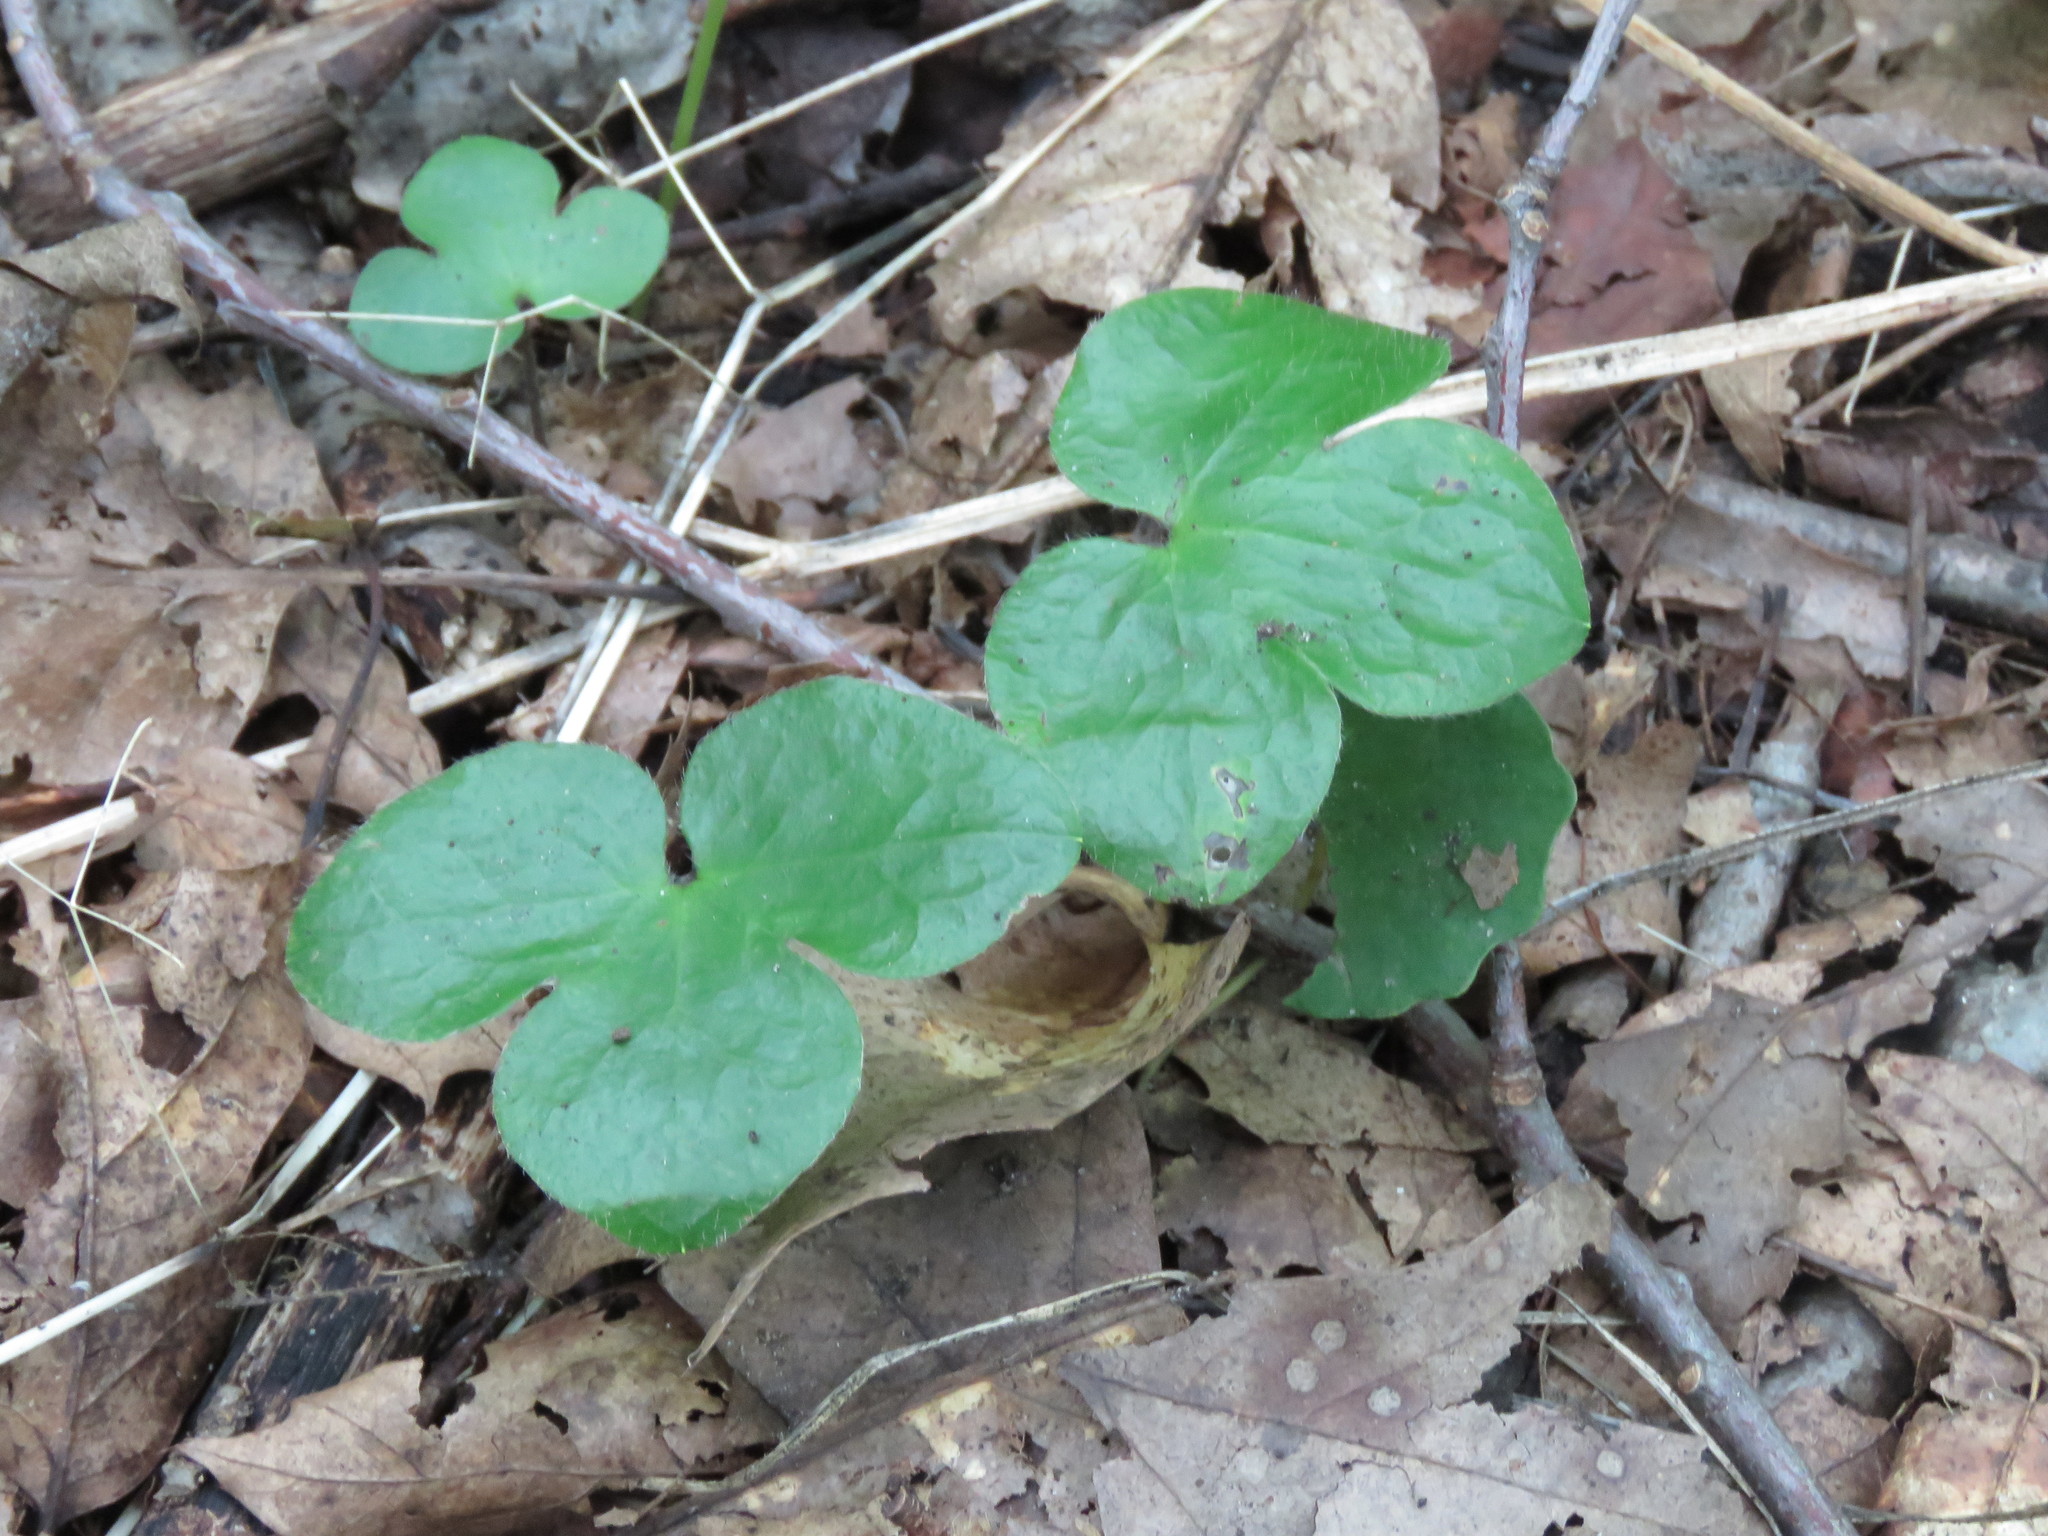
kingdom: Plantae
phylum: Tracheophyta
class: Magnoliopsida
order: Ranunculales
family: Ranunculaceae
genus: Hepatica
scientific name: Hepatica americana
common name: American hepatica
